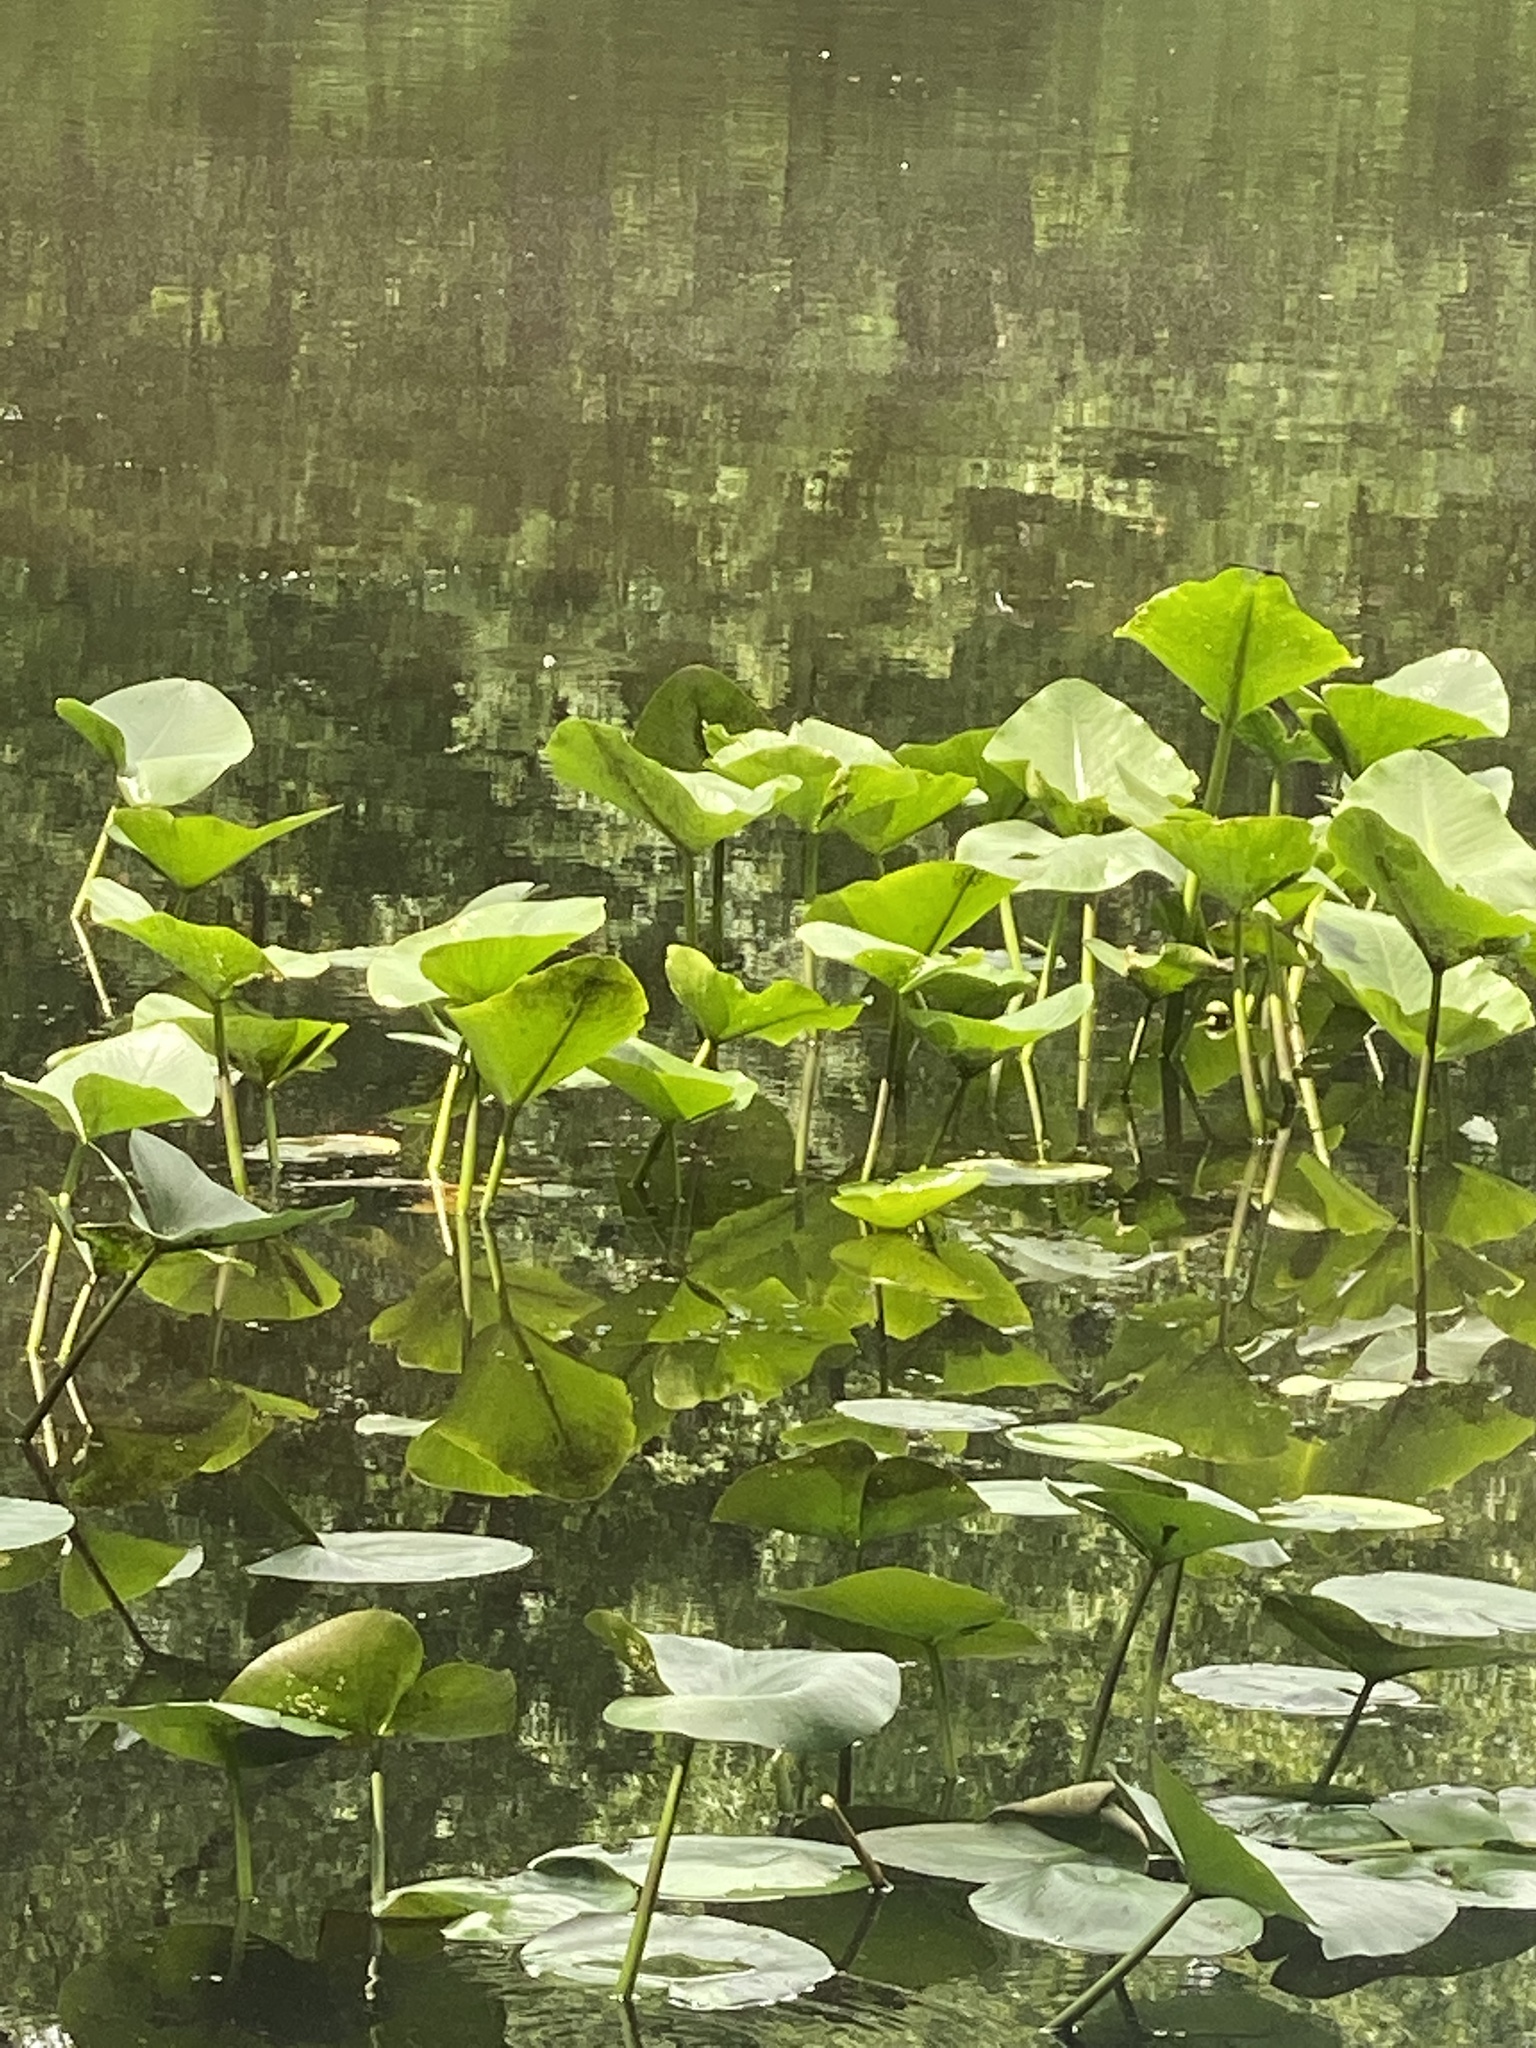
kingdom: Plantae
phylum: Tracheophyta
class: Magnoliopsida
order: Nymphaeales
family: Nymphaeaceae
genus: Nuphar
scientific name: Nuphar advena
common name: Spatter-dock
